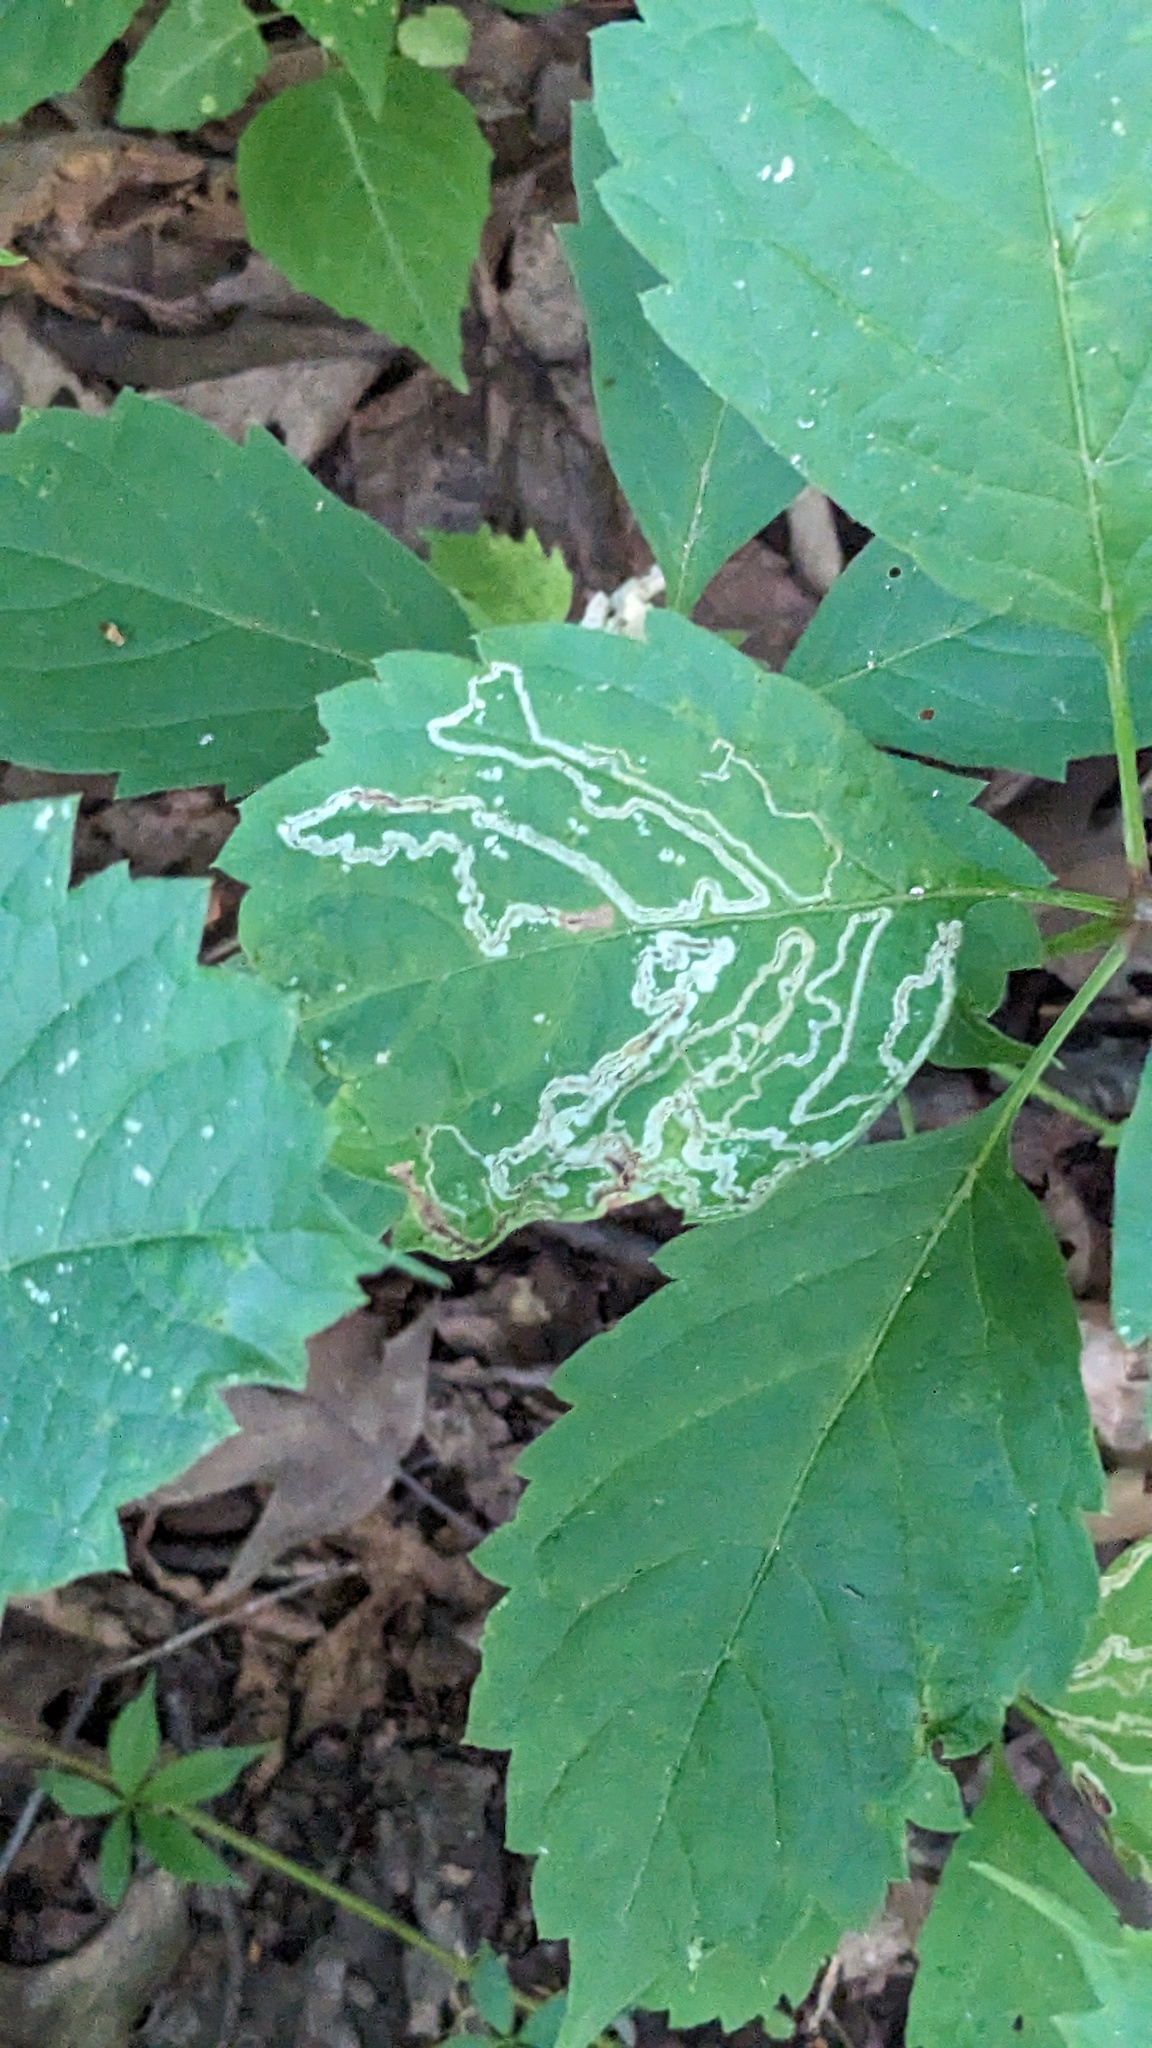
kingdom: Animalia
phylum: Arthropoda
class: Insecta
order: Lepidoptera
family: Gracillariidae
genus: Phyllocnistis
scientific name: Phyllocnistis vitifoliella
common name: Grape leaf-miner moth
